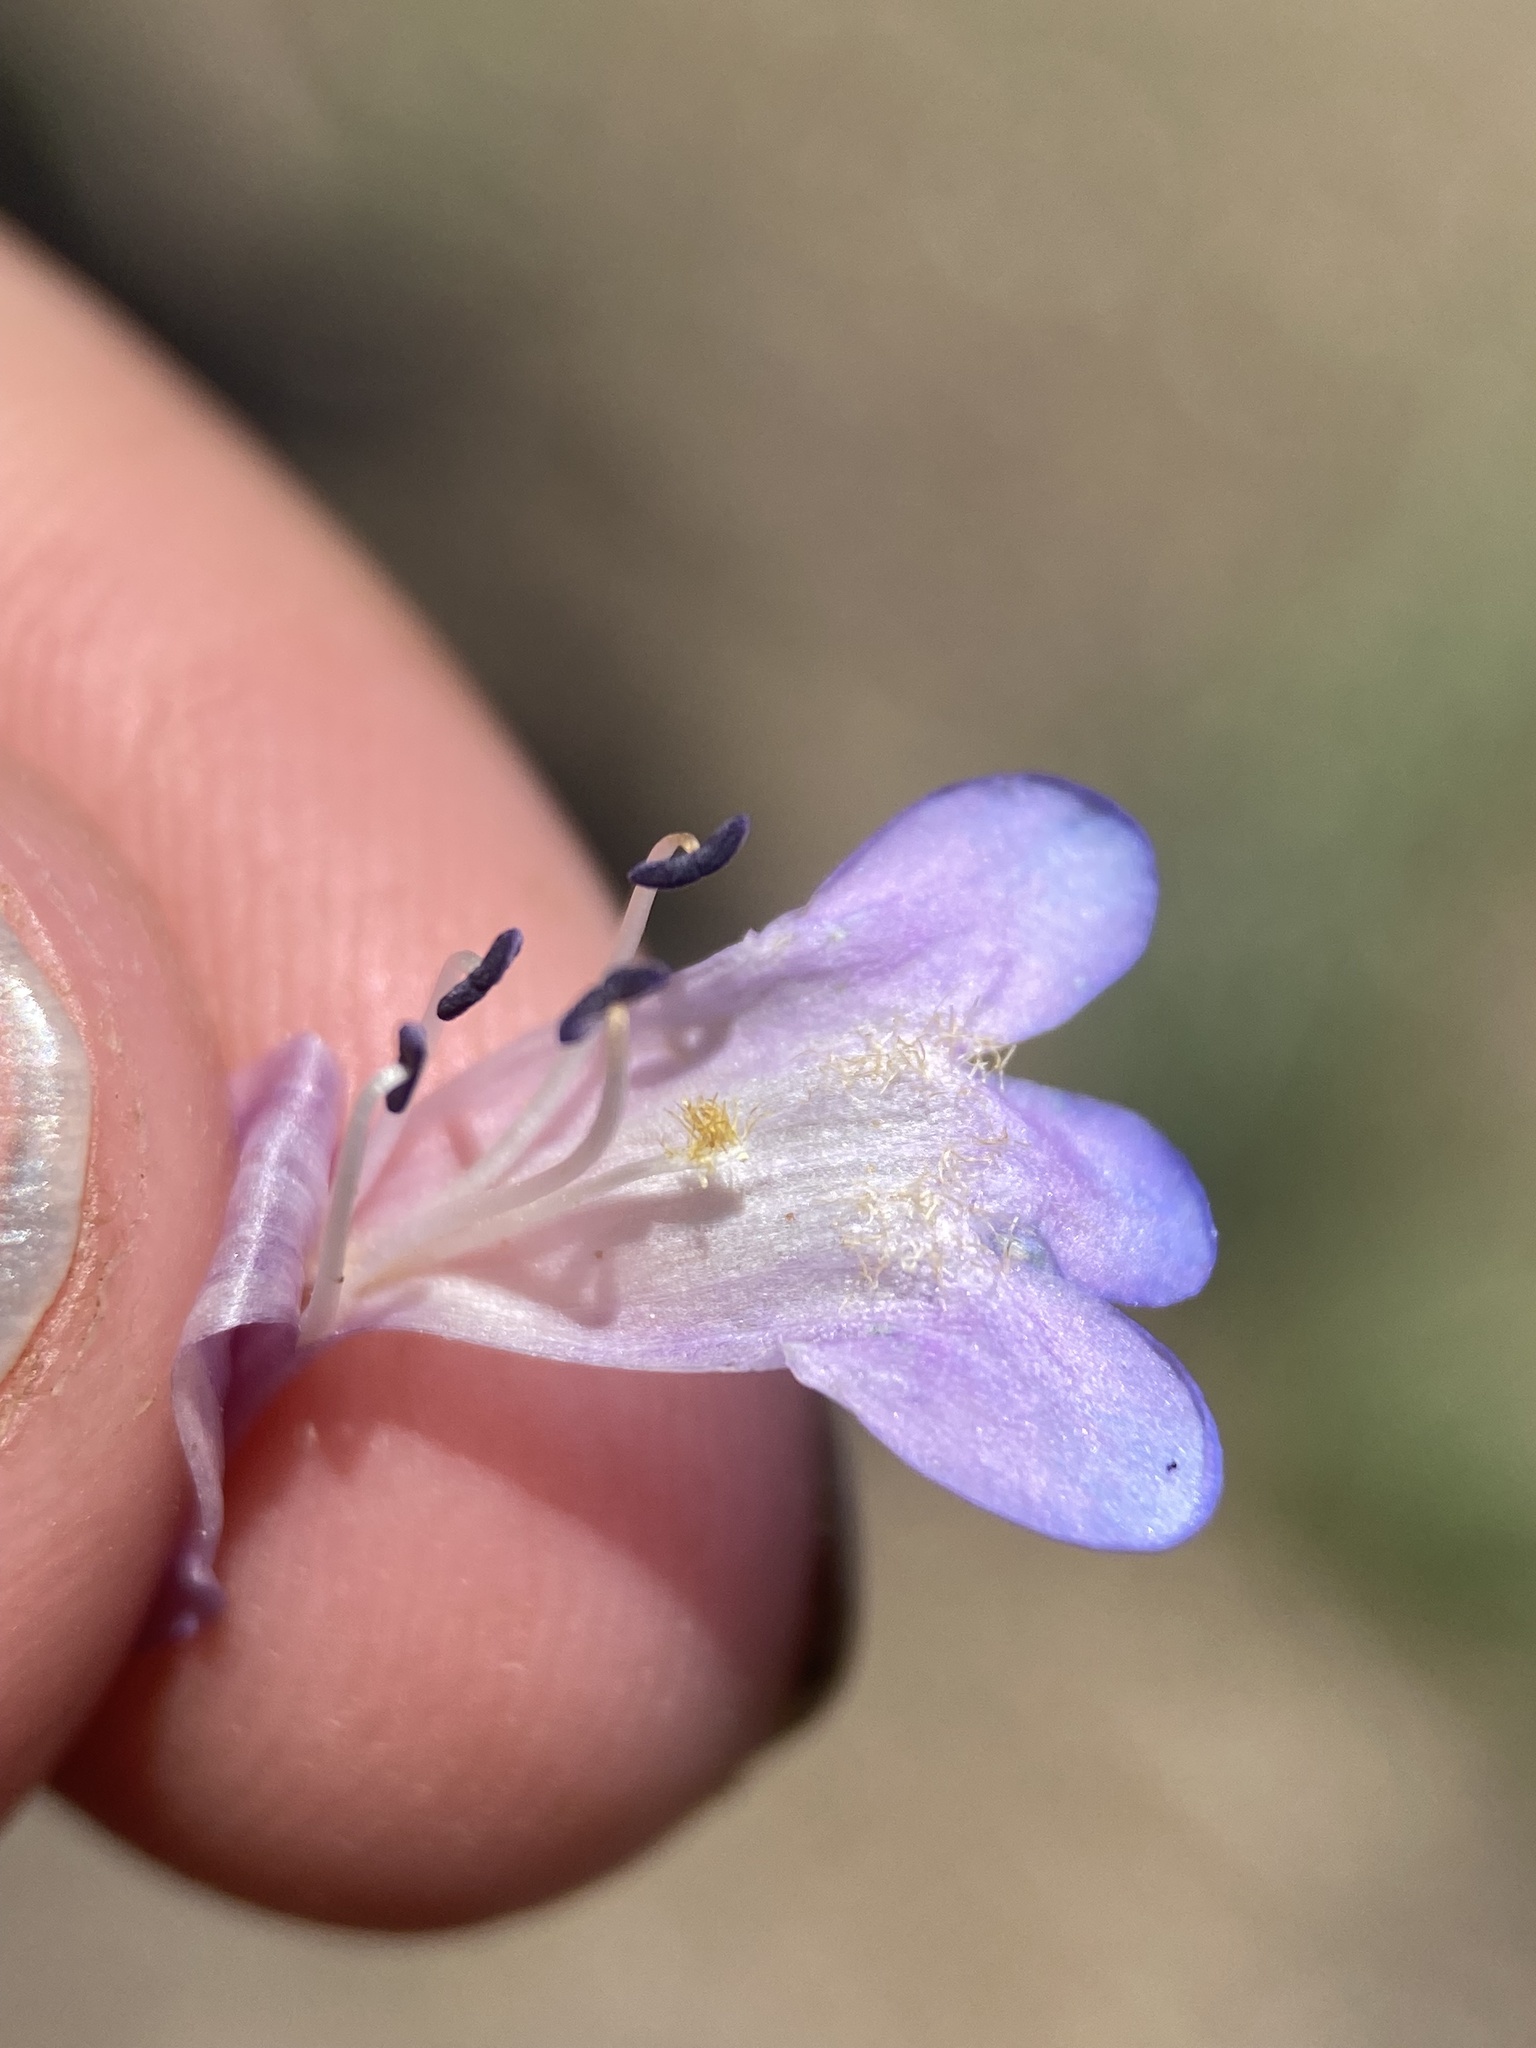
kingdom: Plantae
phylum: Tracheophyta
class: Magnoliopsida
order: Lamiales
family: Plantaginaceae
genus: Penstemon
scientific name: Penstemon rydbergii
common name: Rydberg's beardtongue
